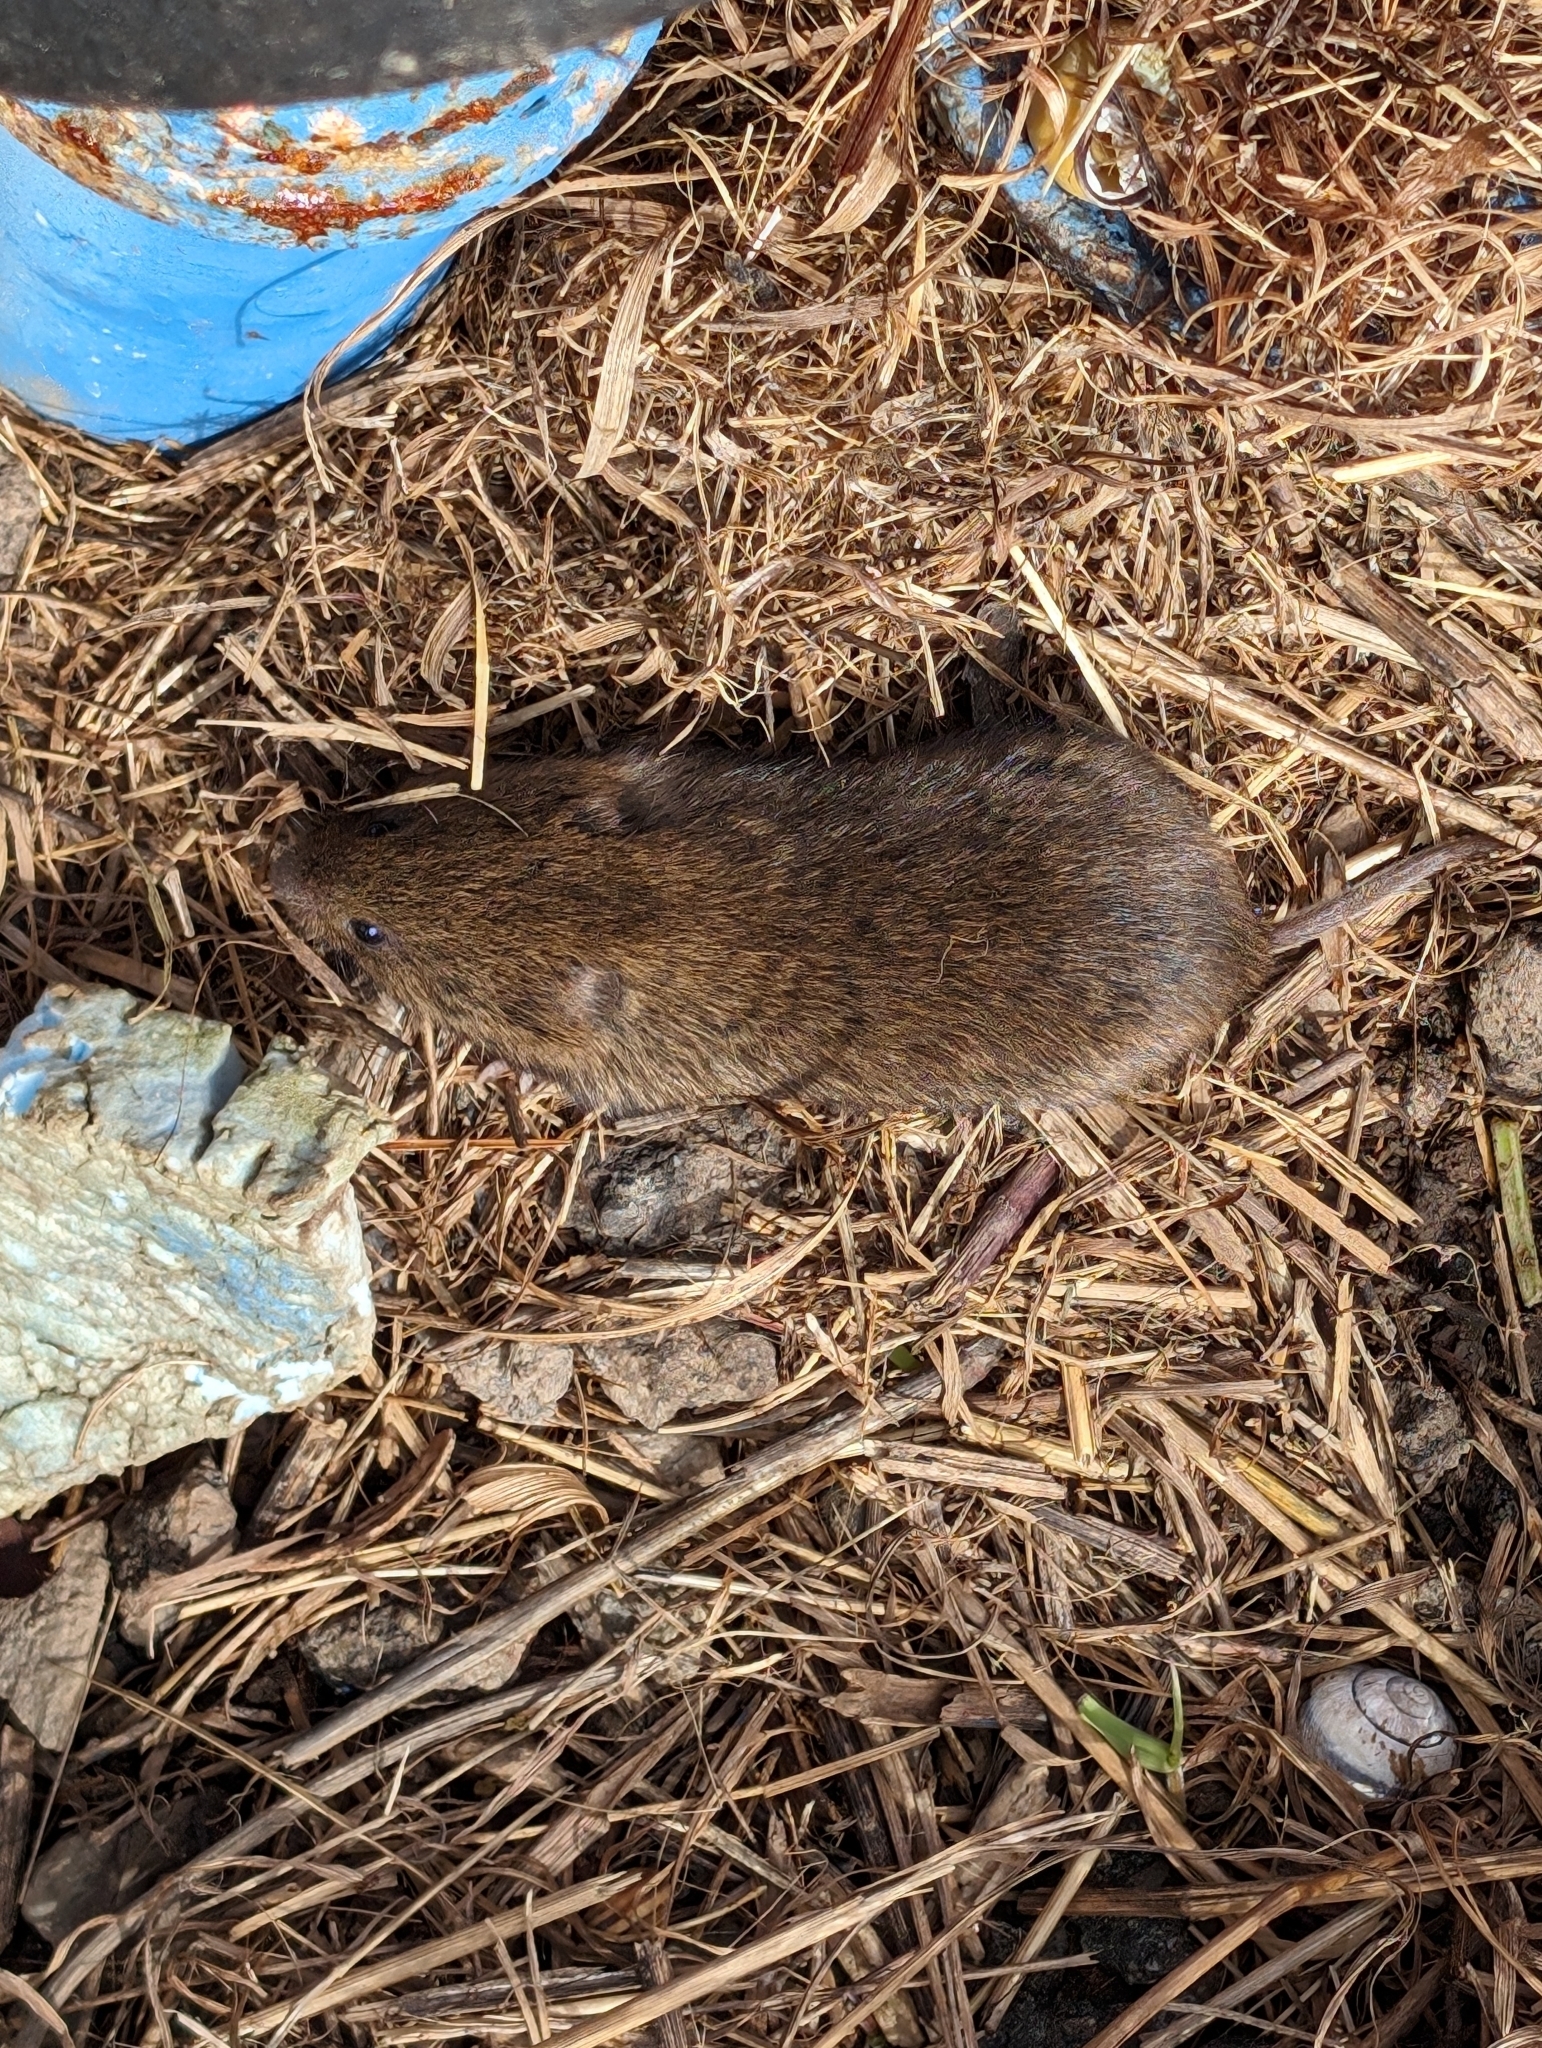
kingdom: Animalia
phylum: Chordata
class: Mammalia
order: Rodentia
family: Cricetidae
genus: Microtus
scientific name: Microtus pennsylvanicus
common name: Meadow vole
